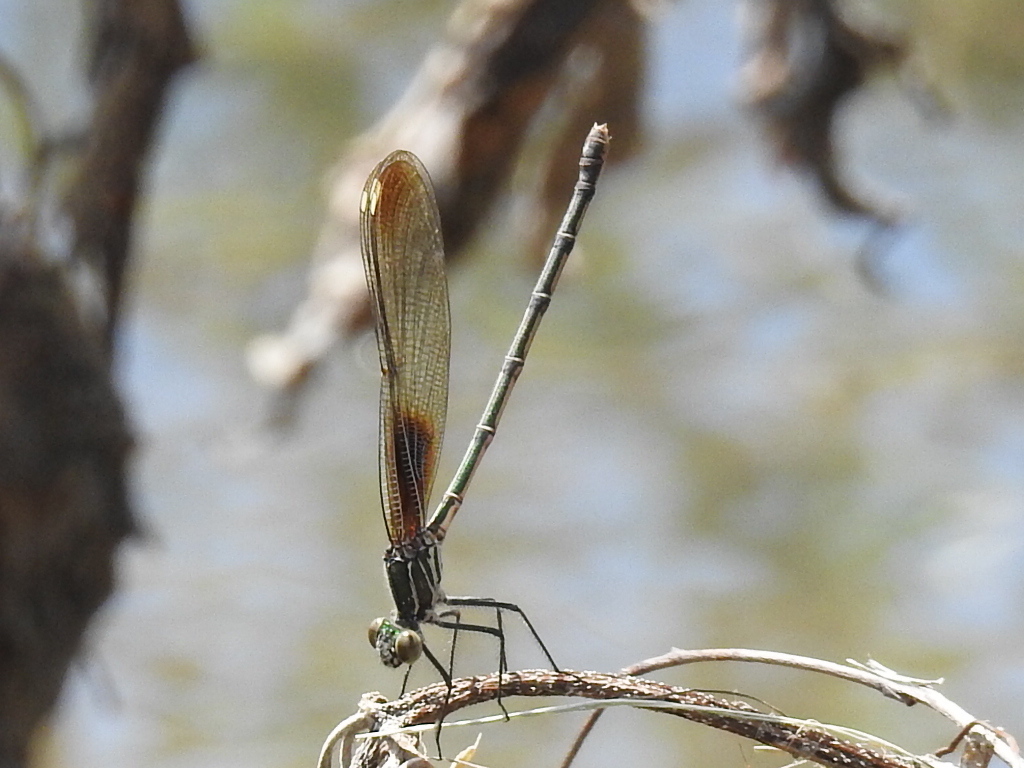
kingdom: Animalia
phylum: Arthropoda
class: Insecta
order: Odonata
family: Calopterygidae
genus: Hetaerina
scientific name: Hetaerina americana
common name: American rubyspot
